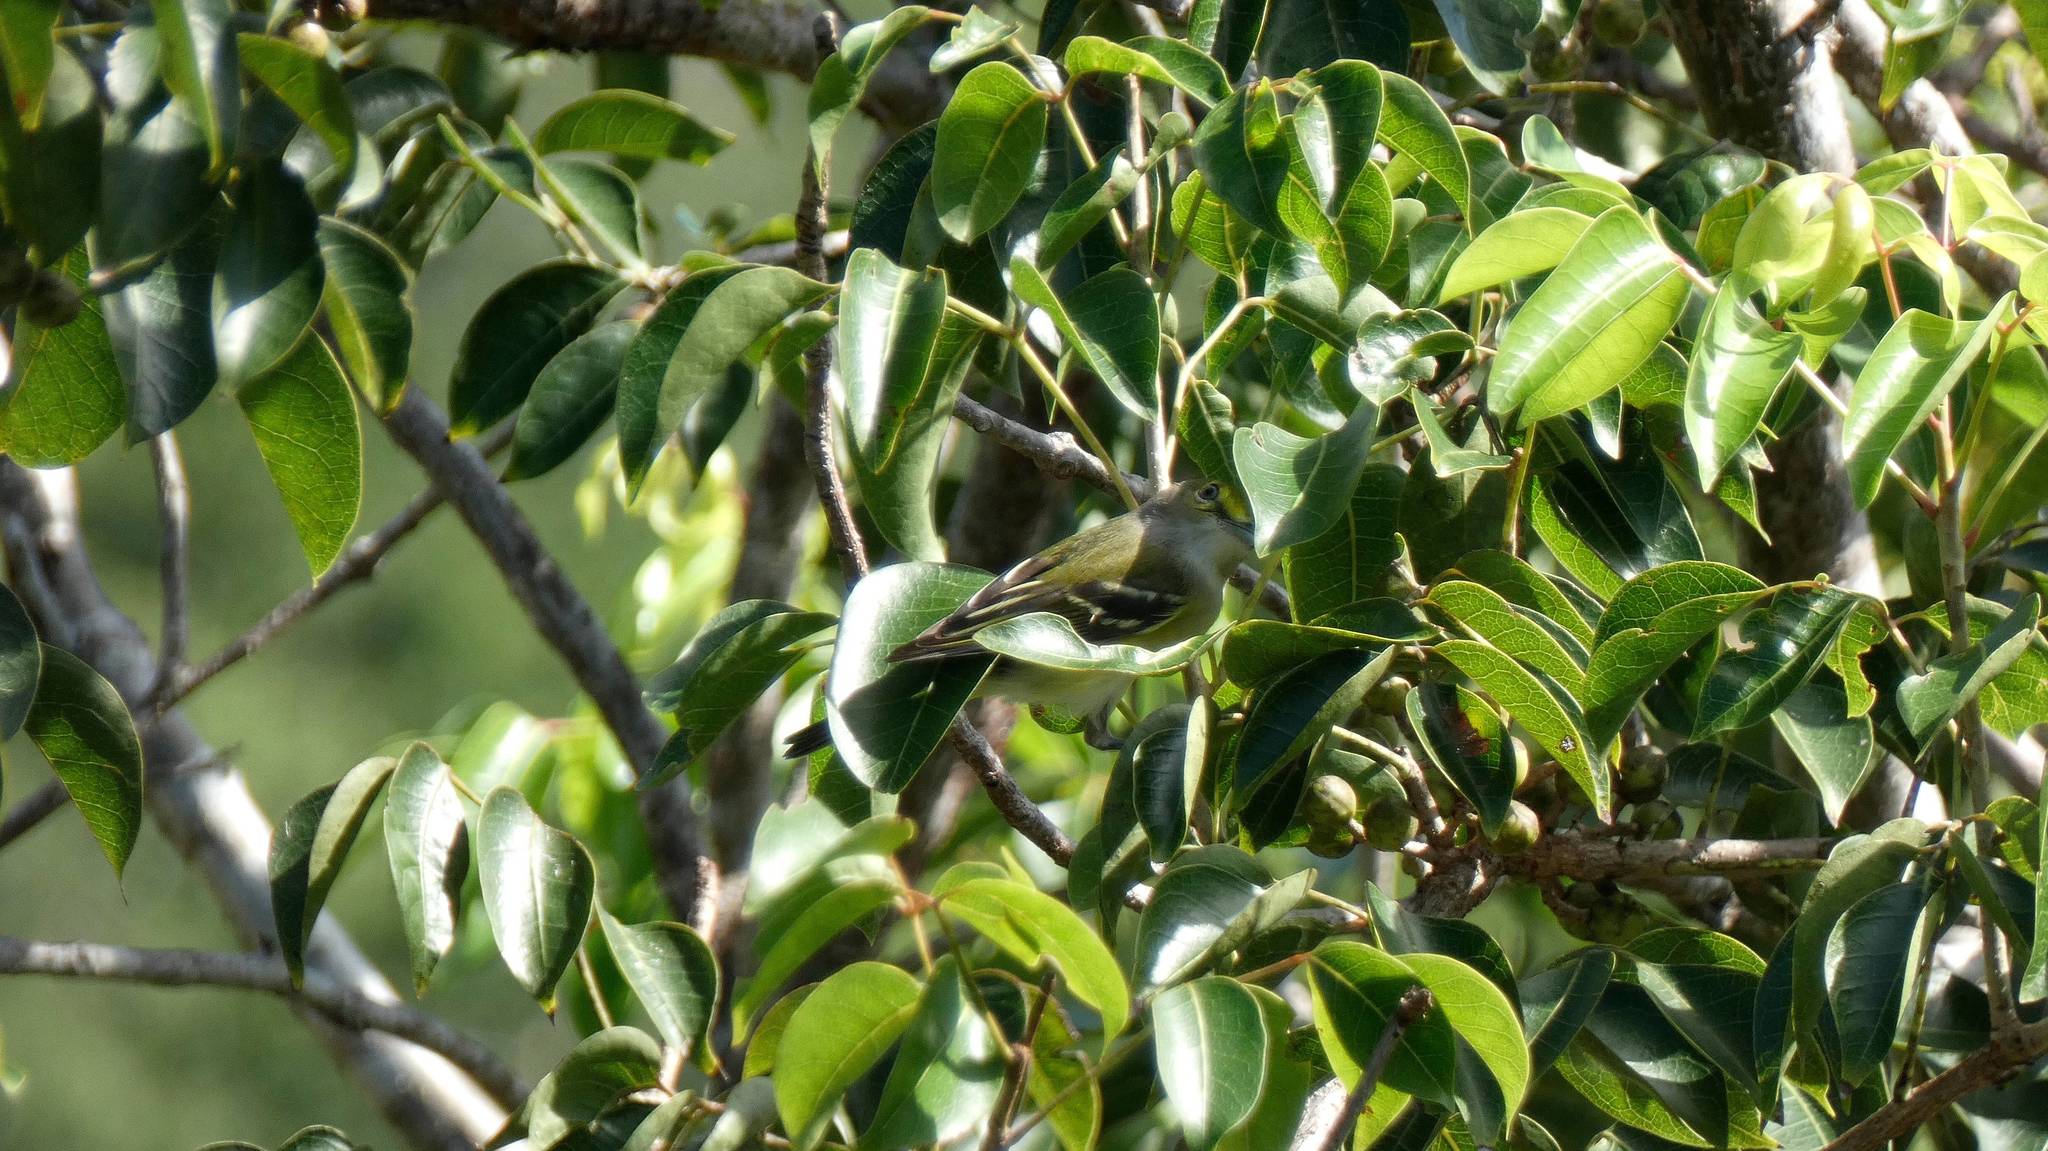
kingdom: Animalia
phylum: Chordata
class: Aves
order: Passeriformes
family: Vireonidae
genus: Vireo
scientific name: Vireo griseus
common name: White-eyed vireo
